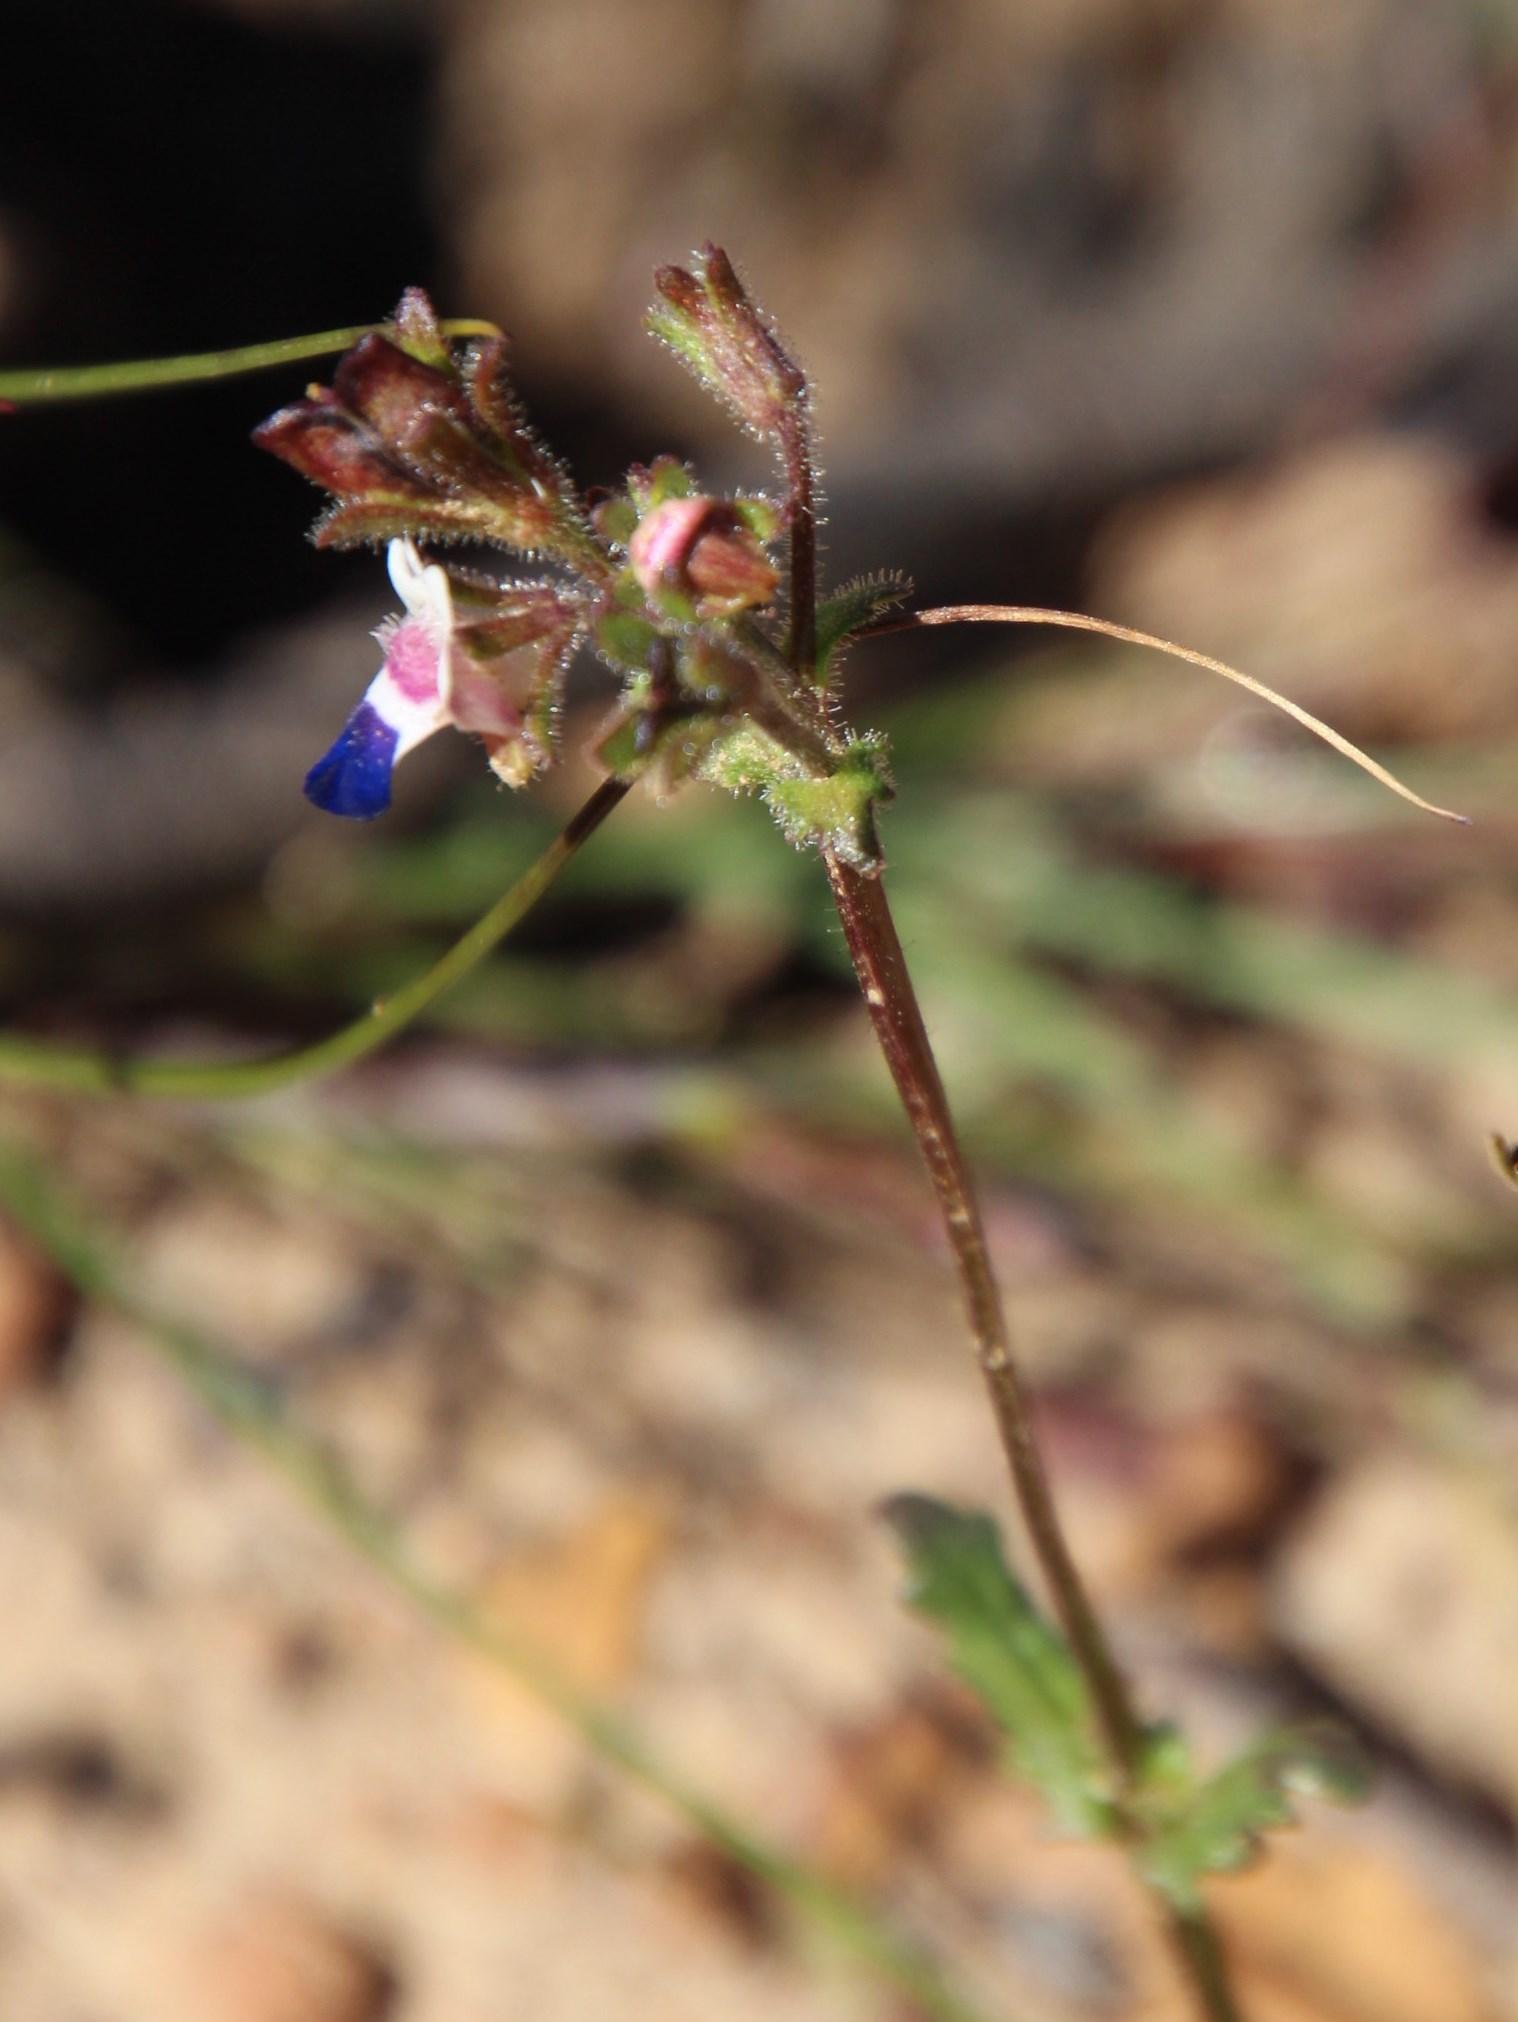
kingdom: Plantae
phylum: Tracheophyta
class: Magnoliopsida
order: Lamiales
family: Scrophulariaceae
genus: Nemesia
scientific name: Nemesia barbata
